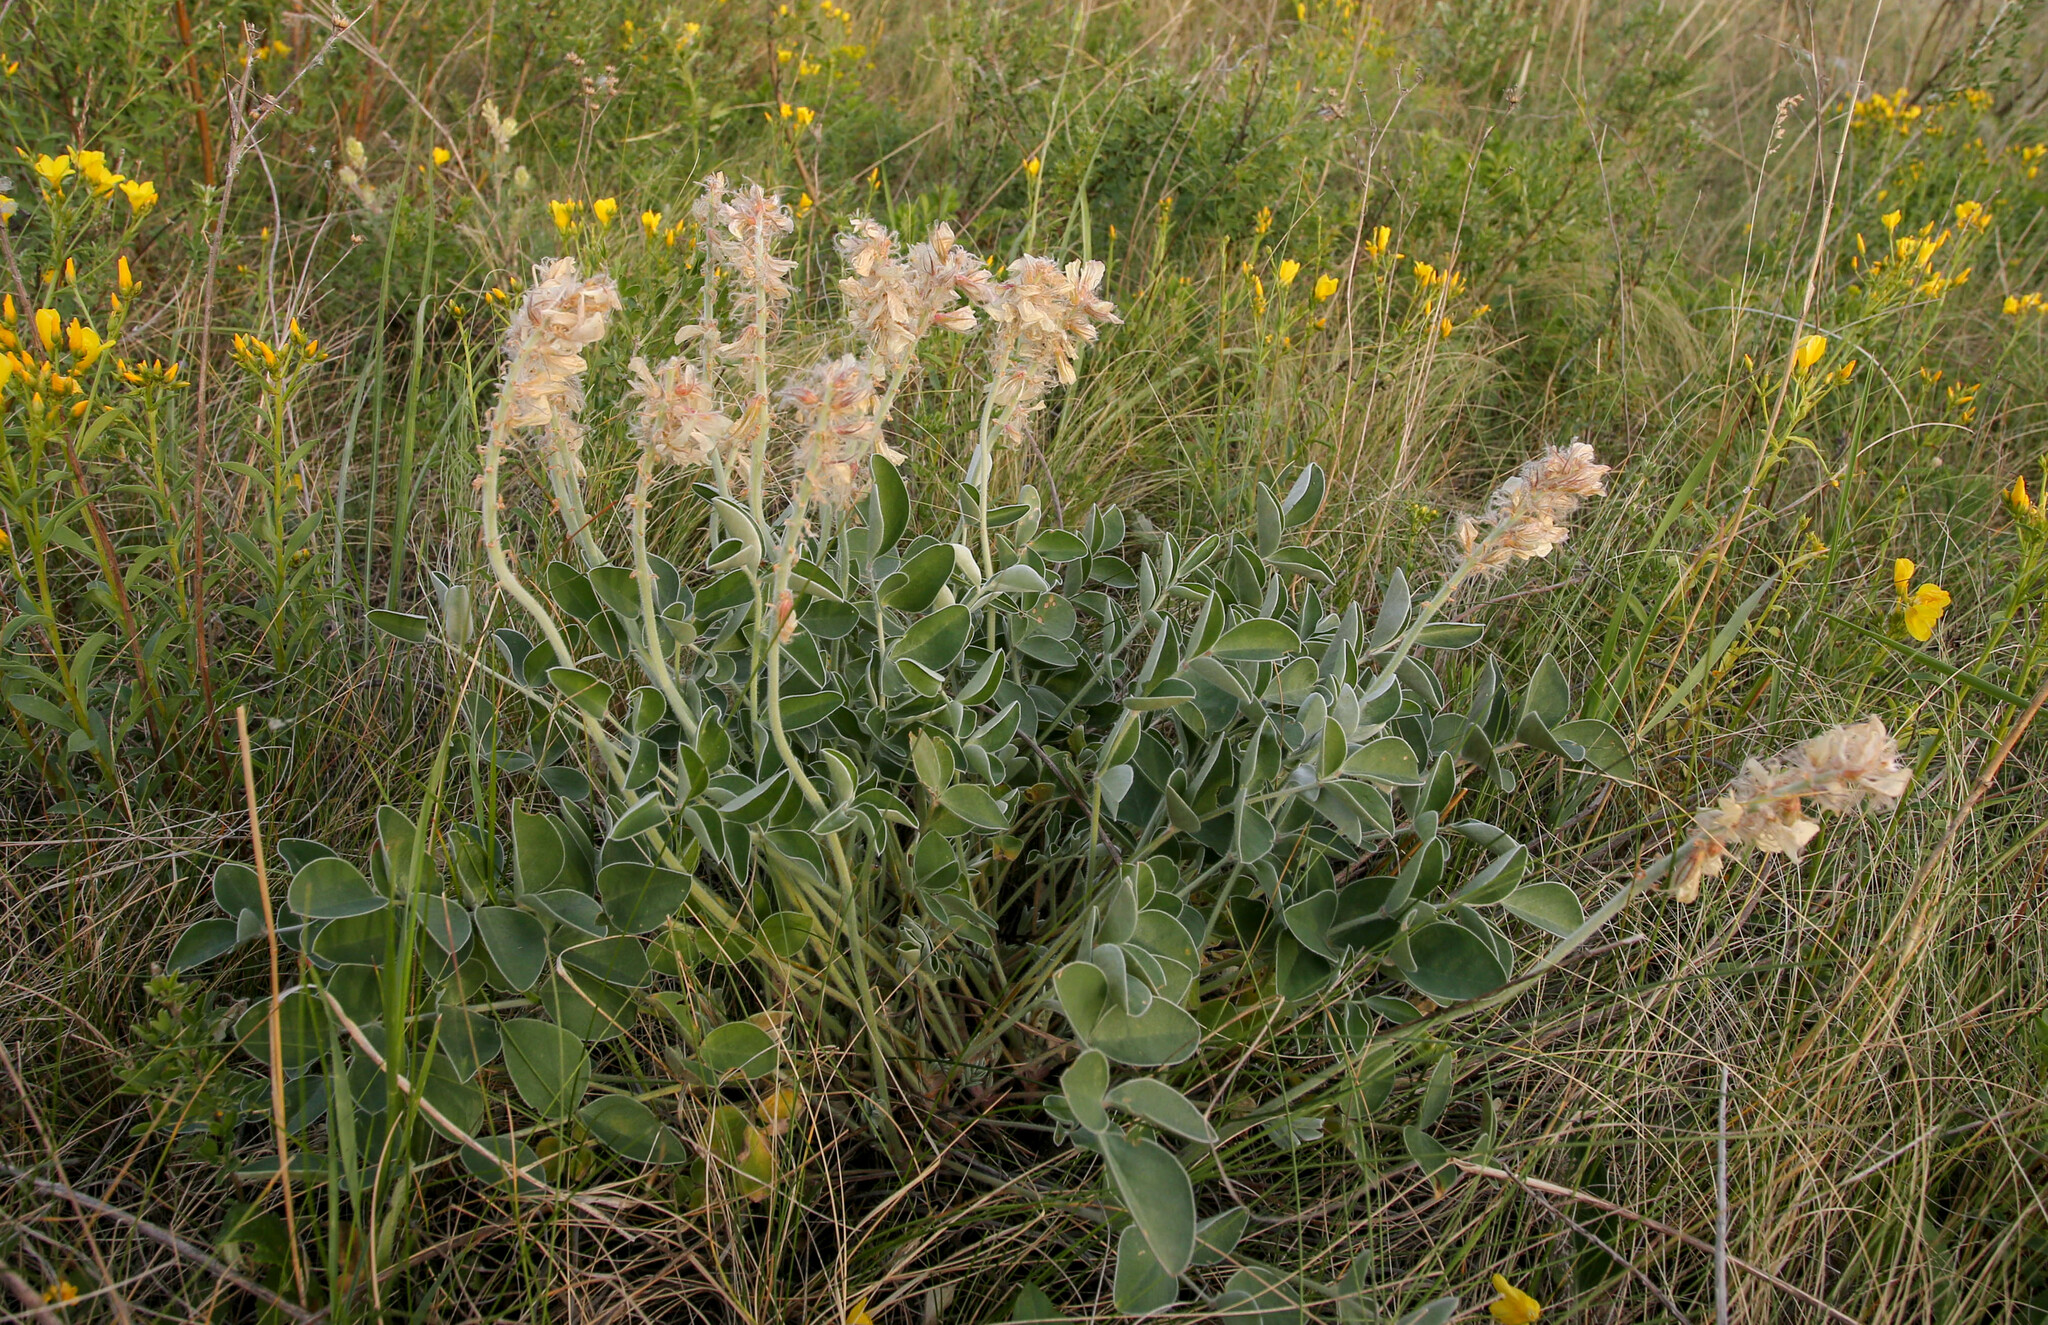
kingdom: Plantae
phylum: Tracheophyta
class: Magnoliopsida
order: Fabales
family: Fabaceae
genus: Hedysarum
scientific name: Hedysarum grandiflorum
